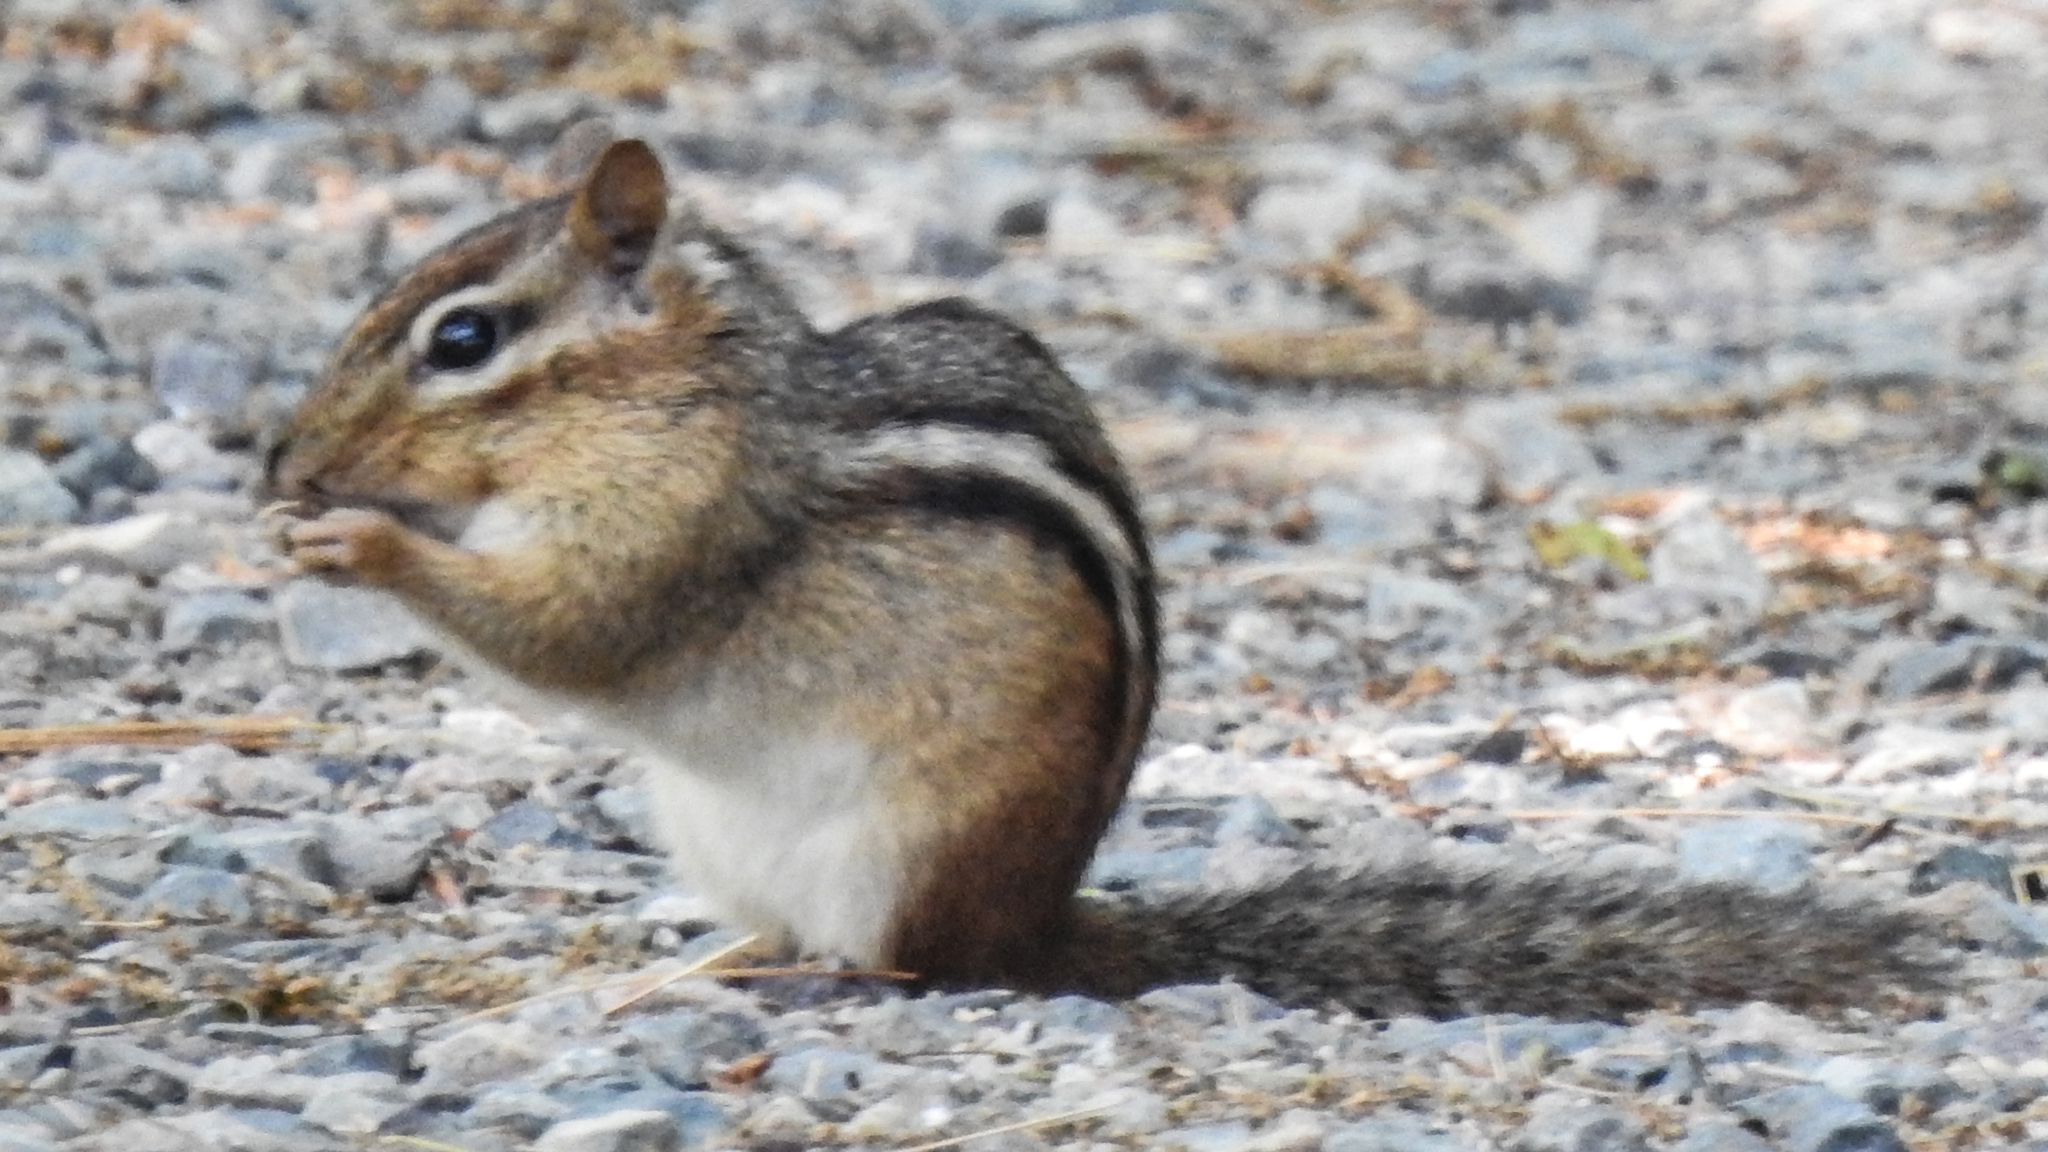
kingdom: Animalia
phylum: Chordata
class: Mammalia
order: Rodentia
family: Sciuridae
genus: Tamias
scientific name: Tamias striatus
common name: Eastern chipmunk
